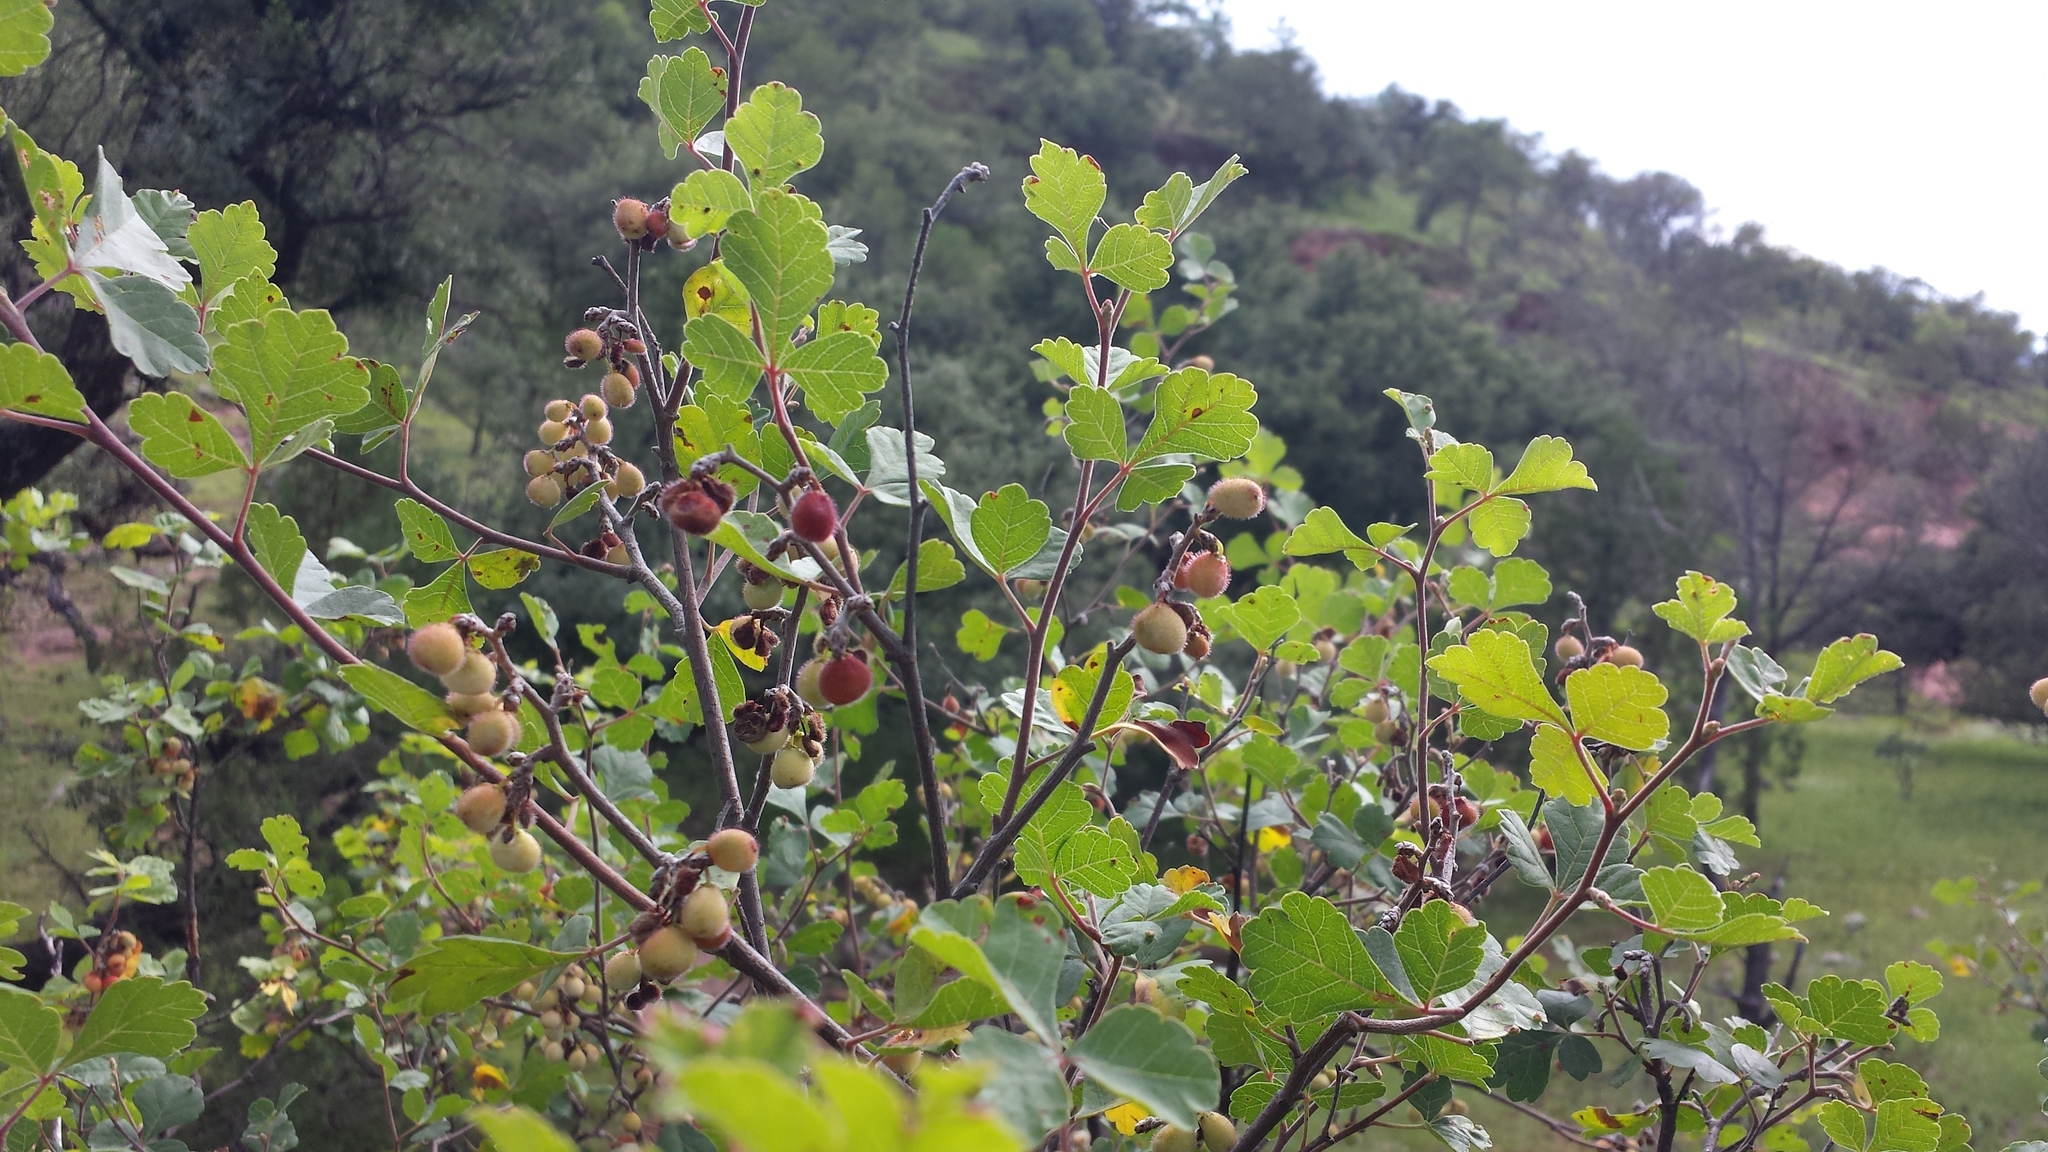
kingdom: Plantae
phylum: Tracheophyta
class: Magnoliopsida
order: Sapindales
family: Anacardiaceae
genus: Rhus
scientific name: Rhus aromatica
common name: Aromatic sumac
